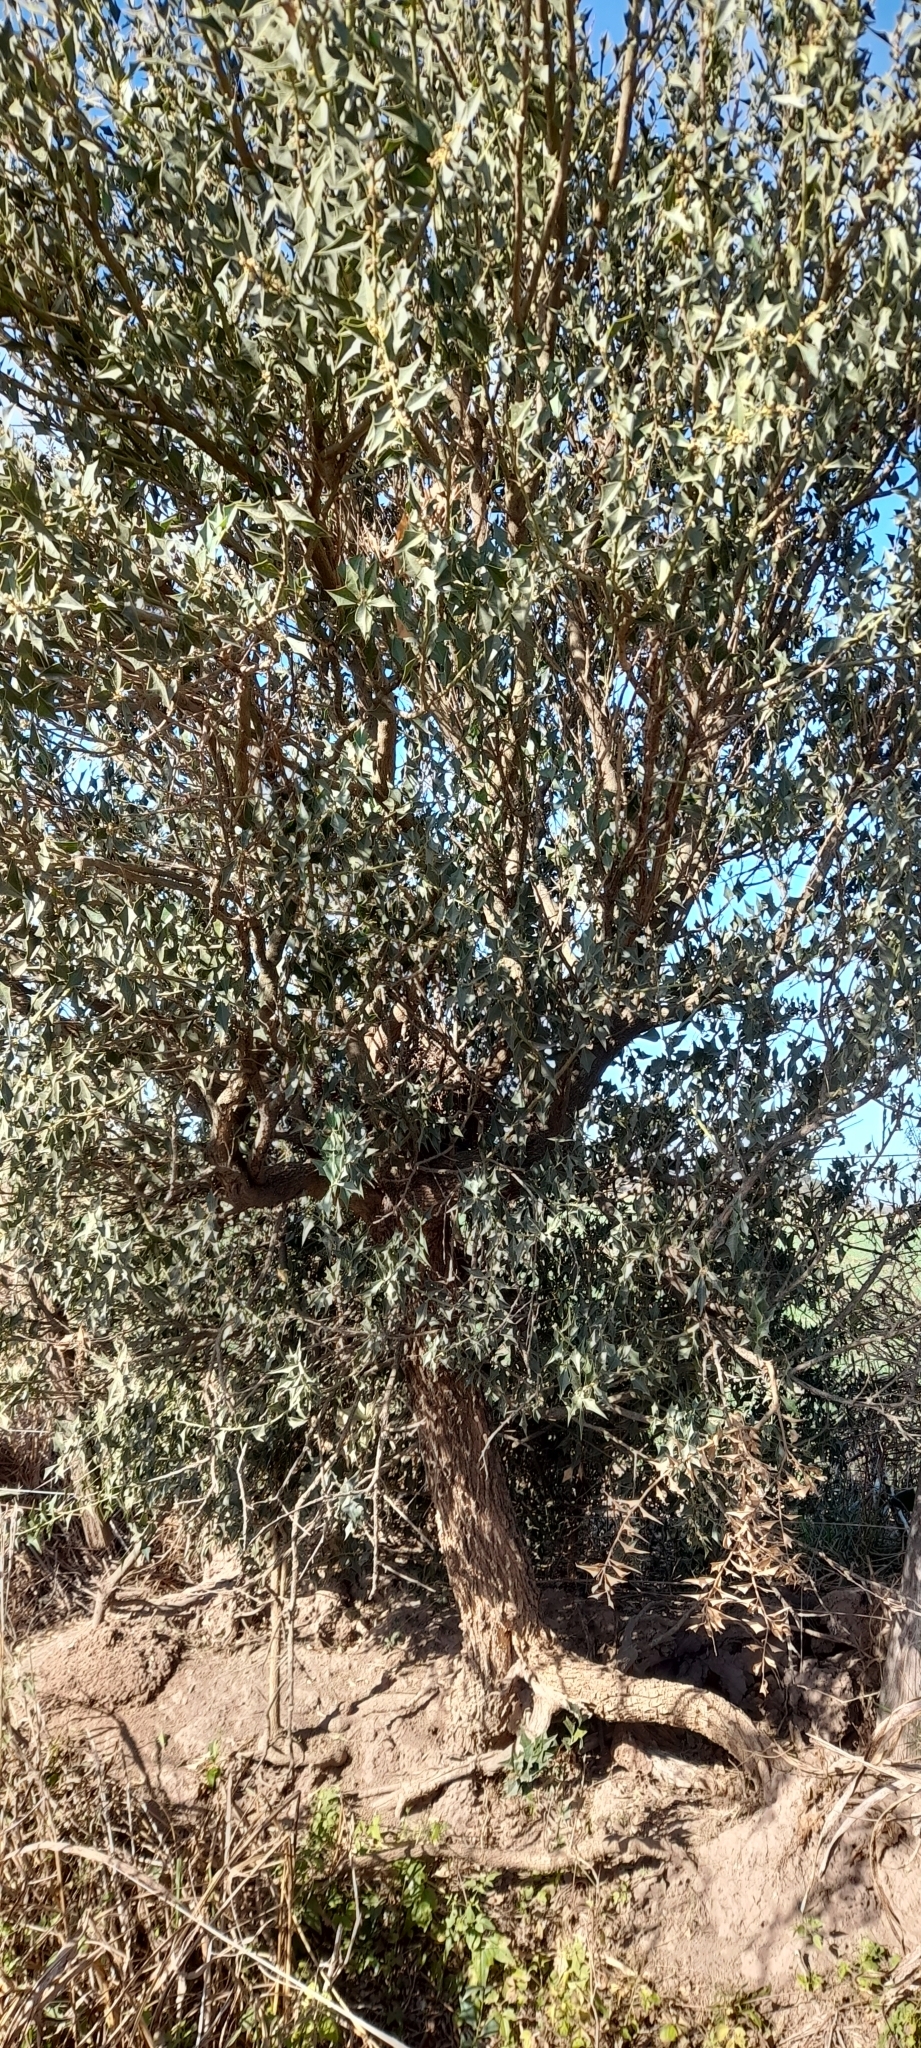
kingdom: Plantae
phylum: Tracheophyta
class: Magnoliopsida
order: Santalales
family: Cervantesiaceae
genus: Jodina
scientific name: Jodina rhombifolia
